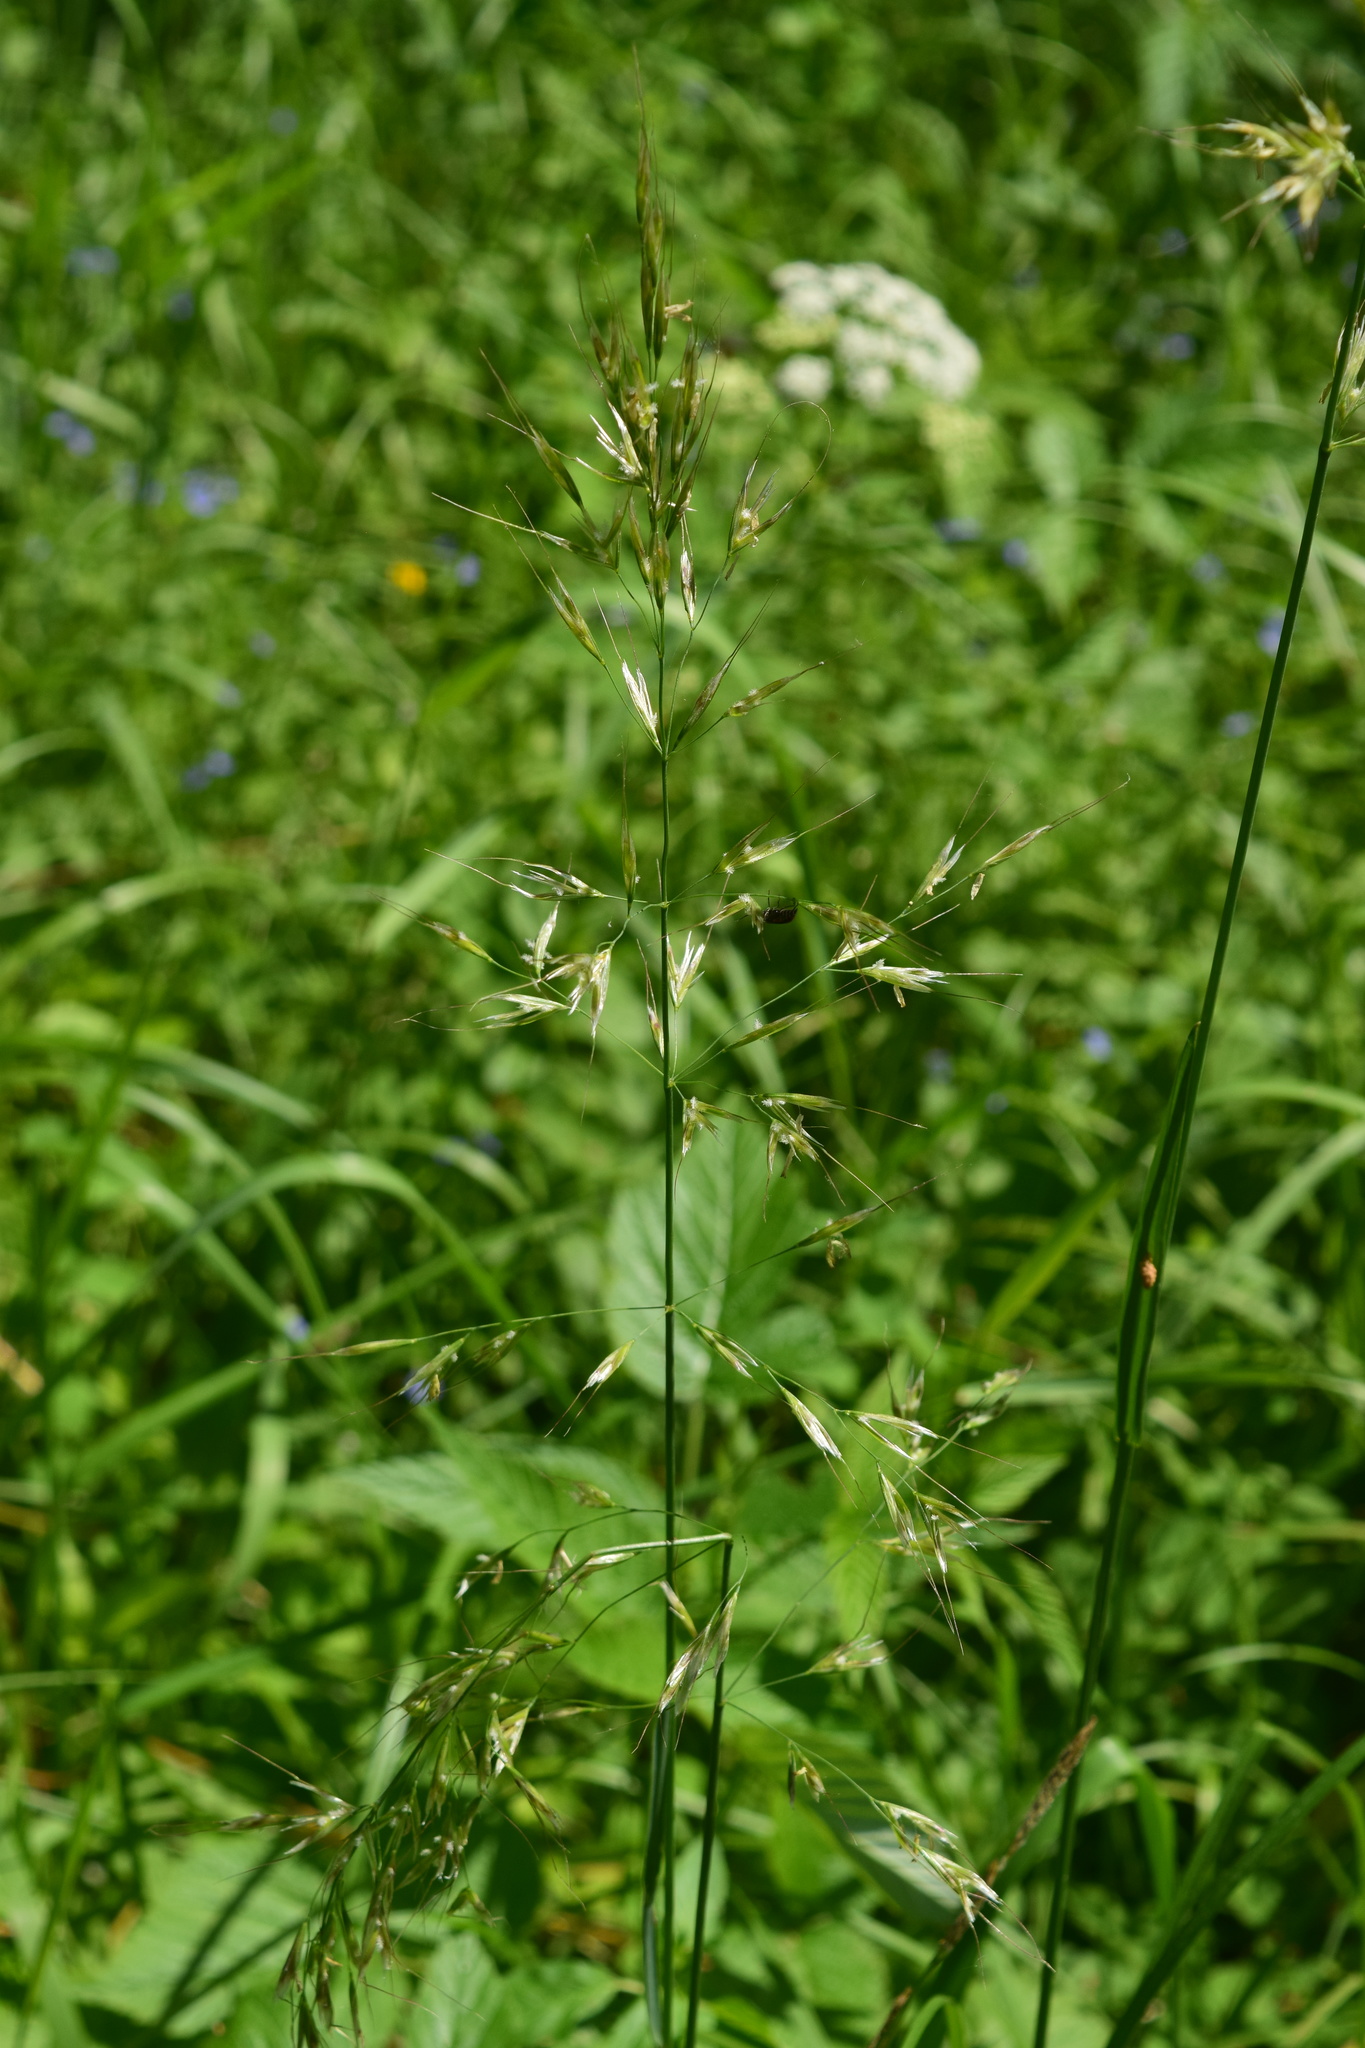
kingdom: Plantae
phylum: Tracheophyta
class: Liliopsida
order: Poales
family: Poaceae
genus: Avenula
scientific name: Avenula pubescens
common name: Downy alpine oatgrass
